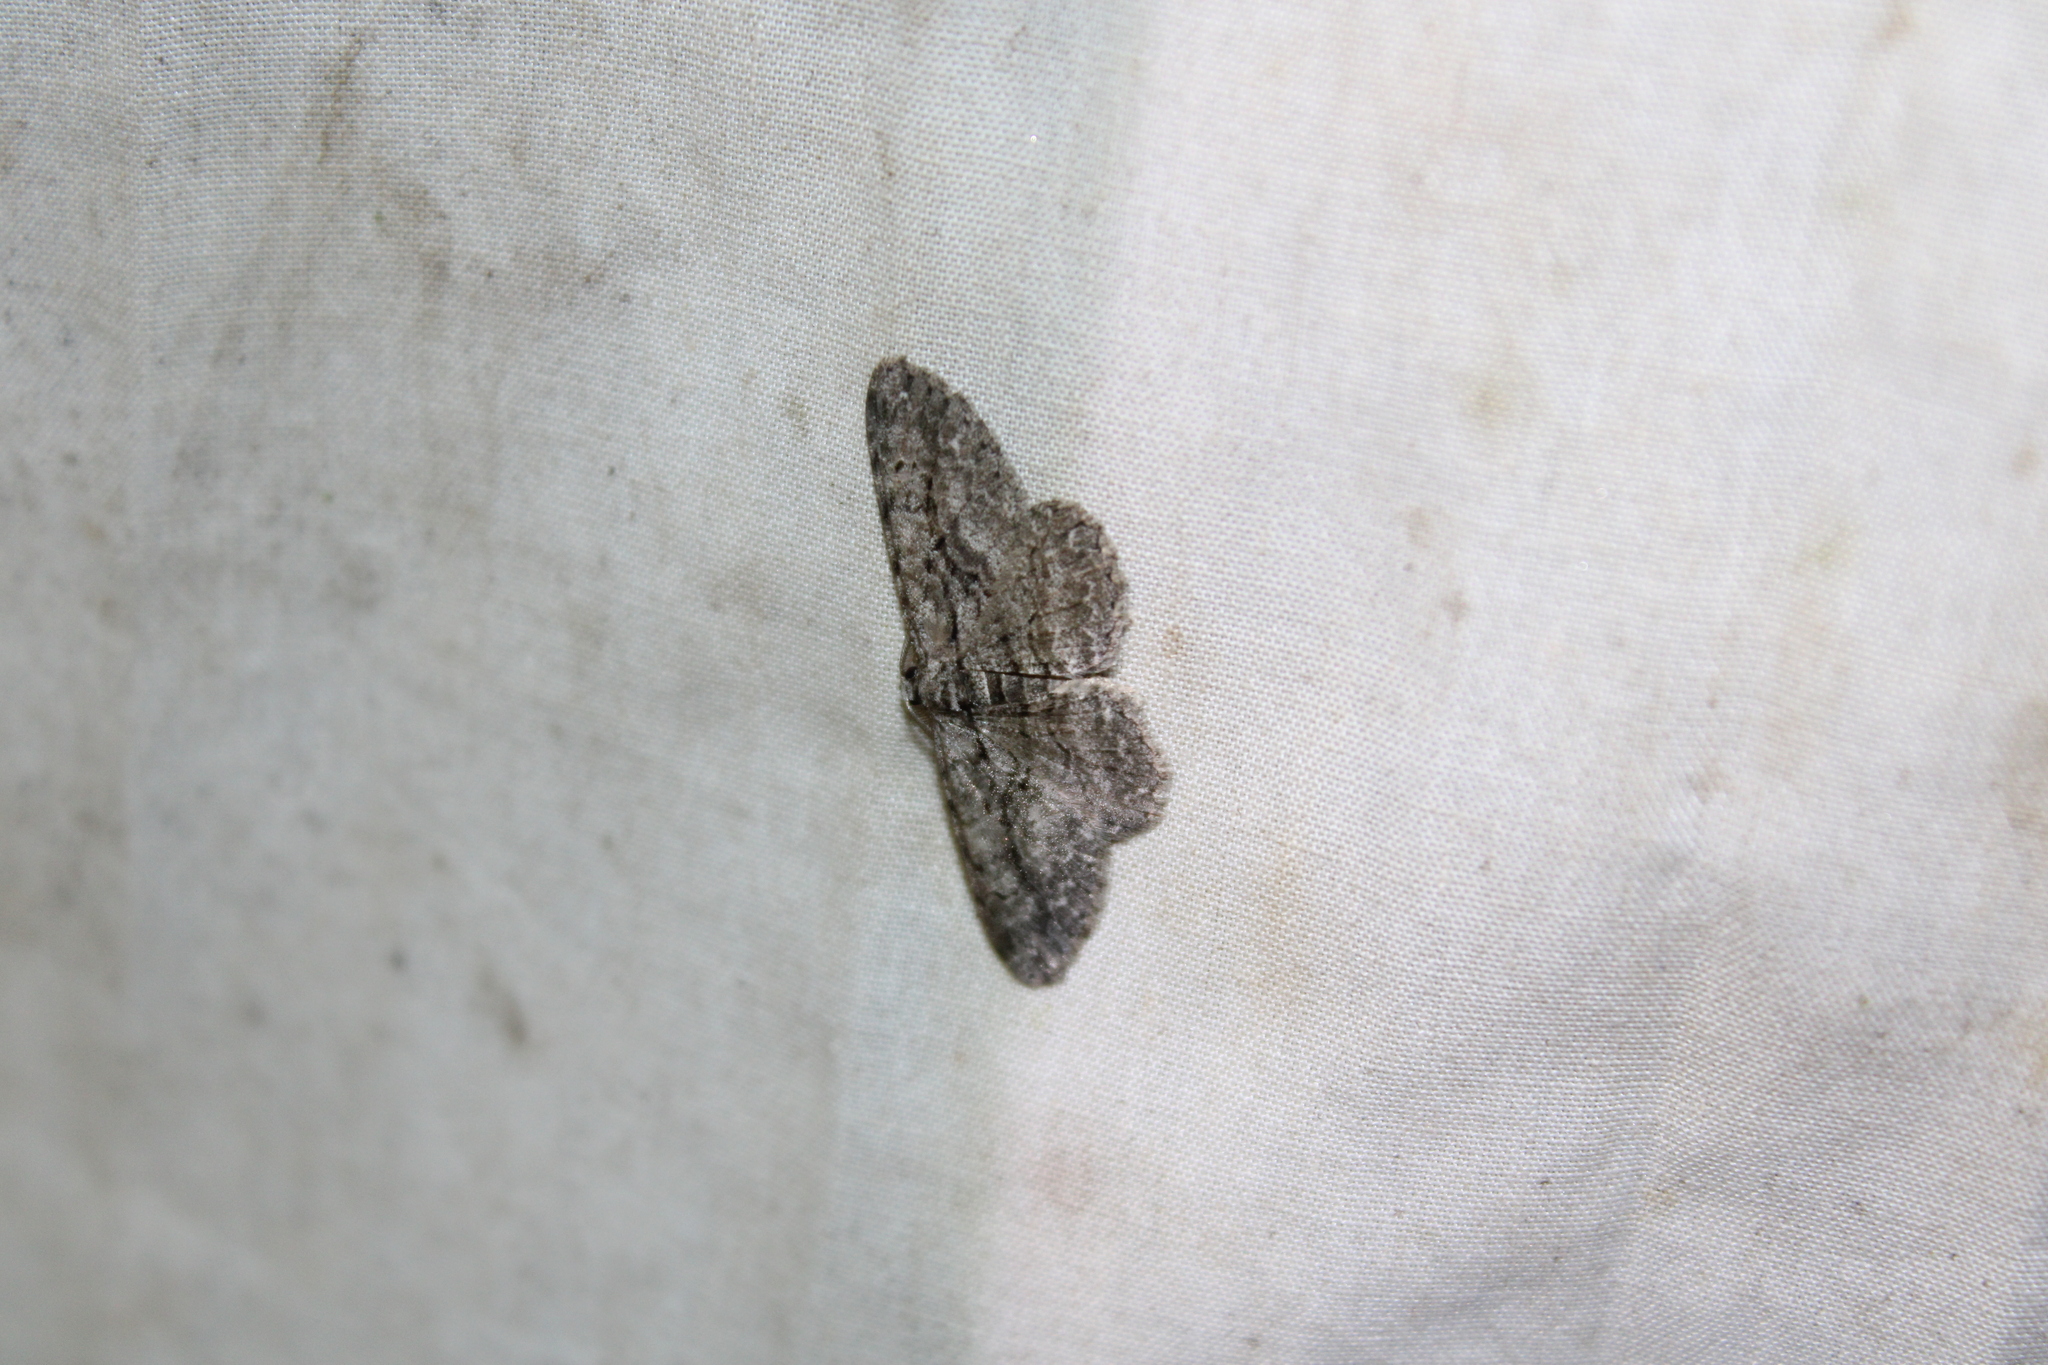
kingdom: Animalia
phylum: Arthropoda
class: Insecta
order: Lepidoptera
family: Geometridae
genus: Anavitrinella
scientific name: Anavitrinella pampinaria
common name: Common gray
